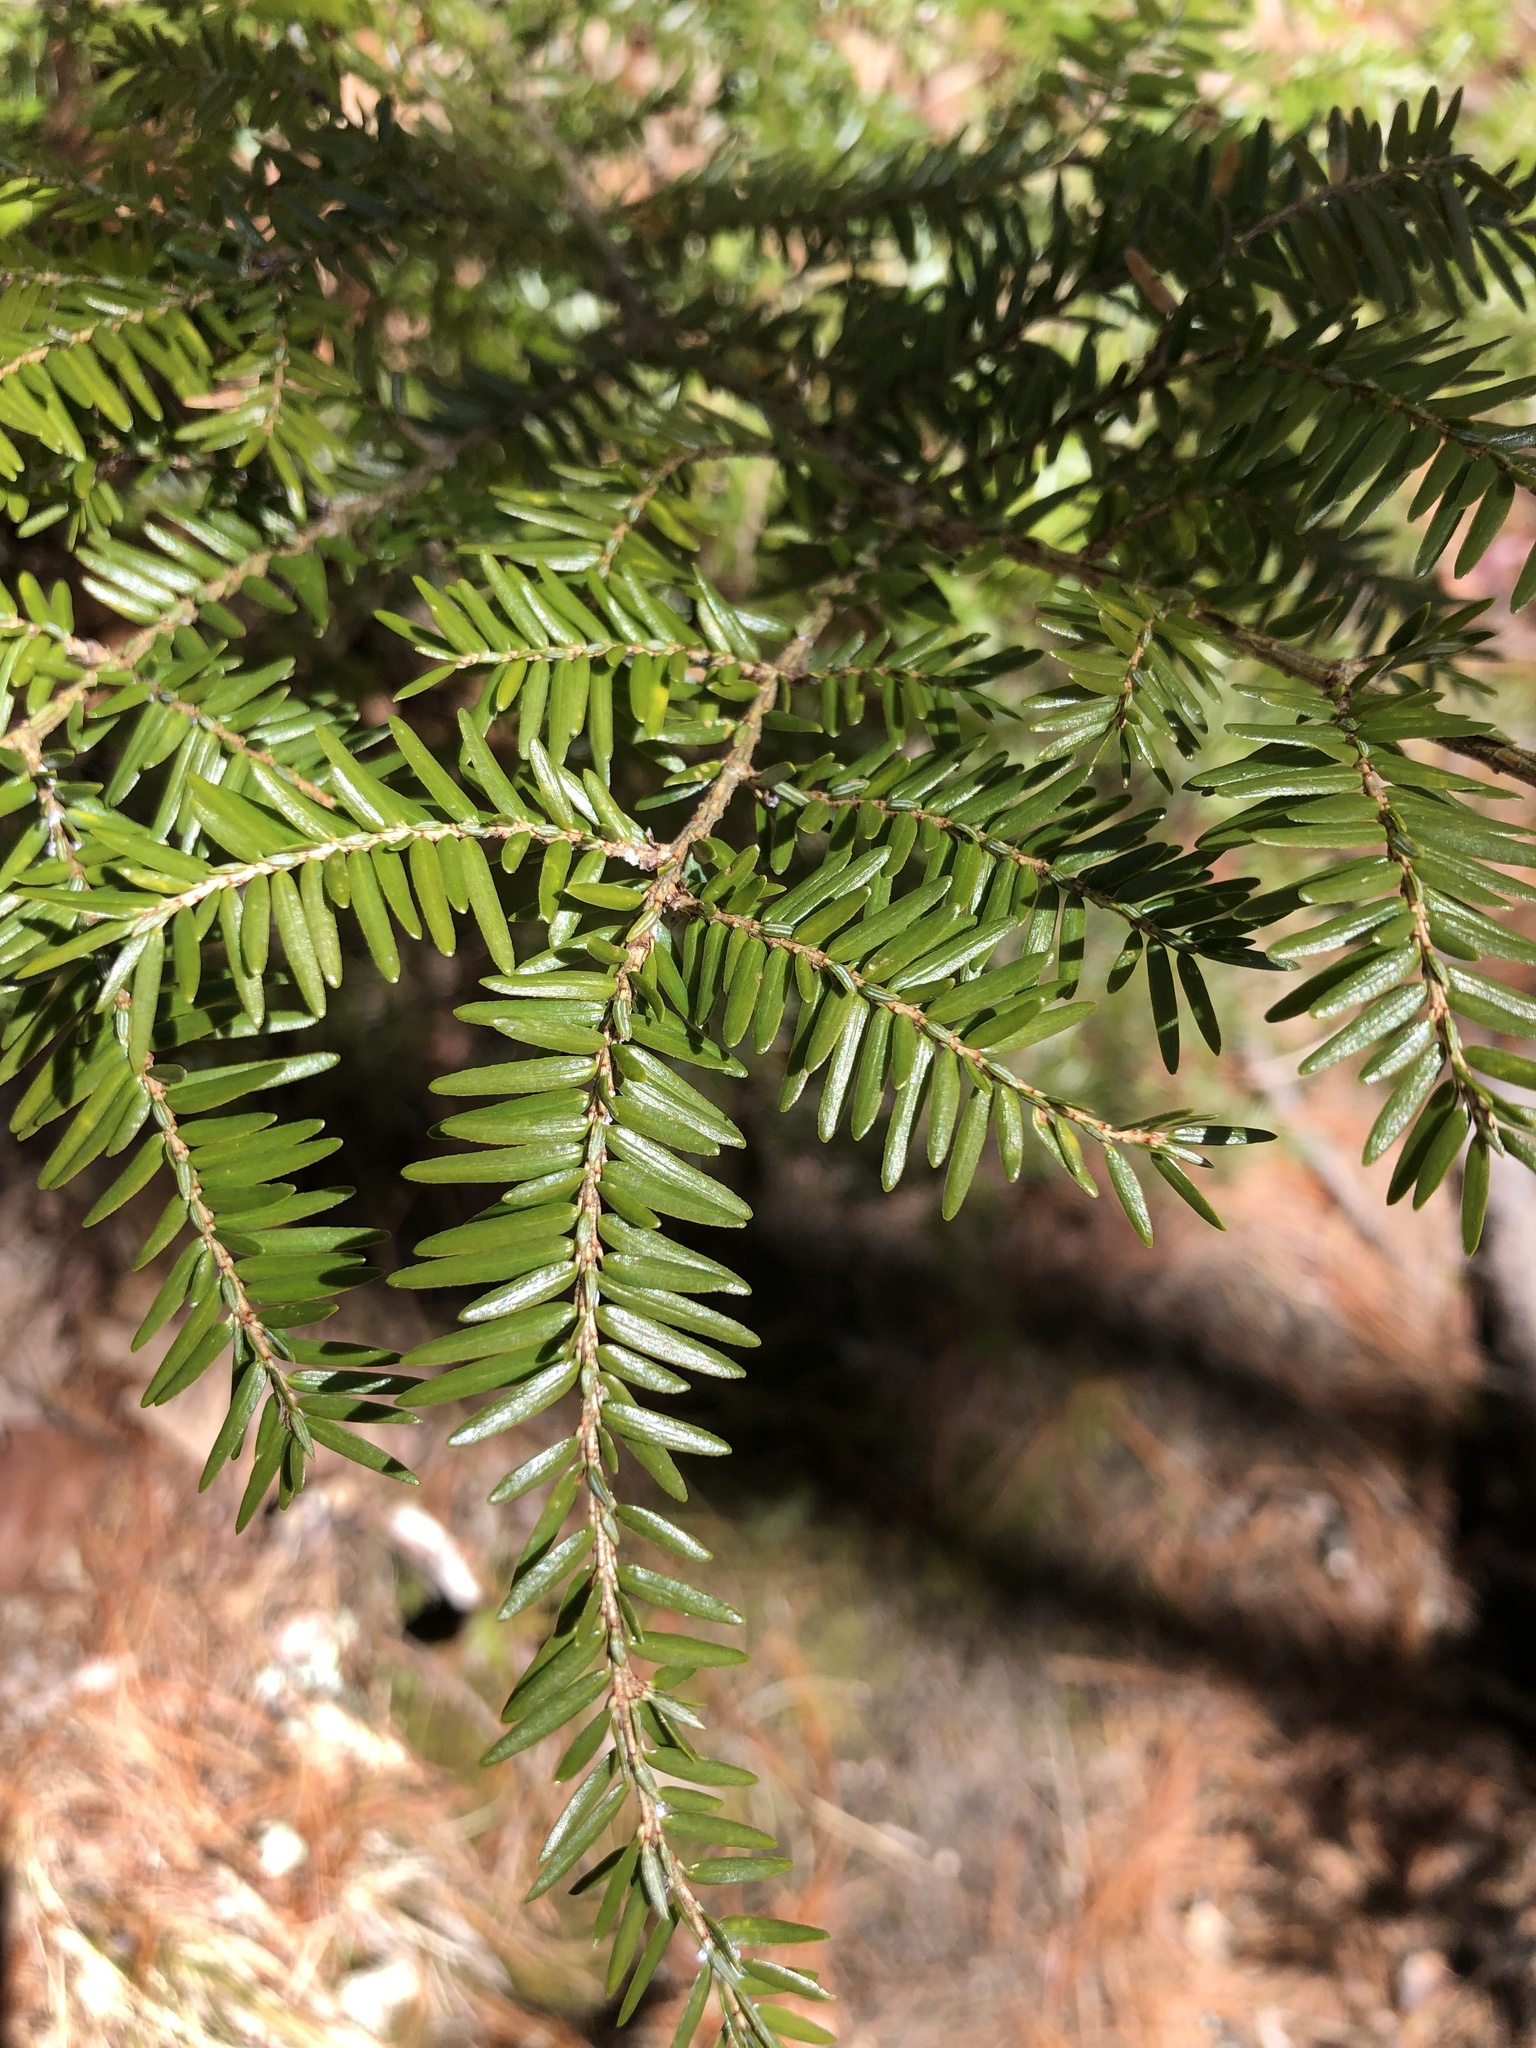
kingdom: Plantae
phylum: Tracheophyta
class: Pinopsida
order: Pinales
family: Pinaceae
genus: Tsuga
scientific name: Tsuga canadensis
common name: Eastern hemlock
